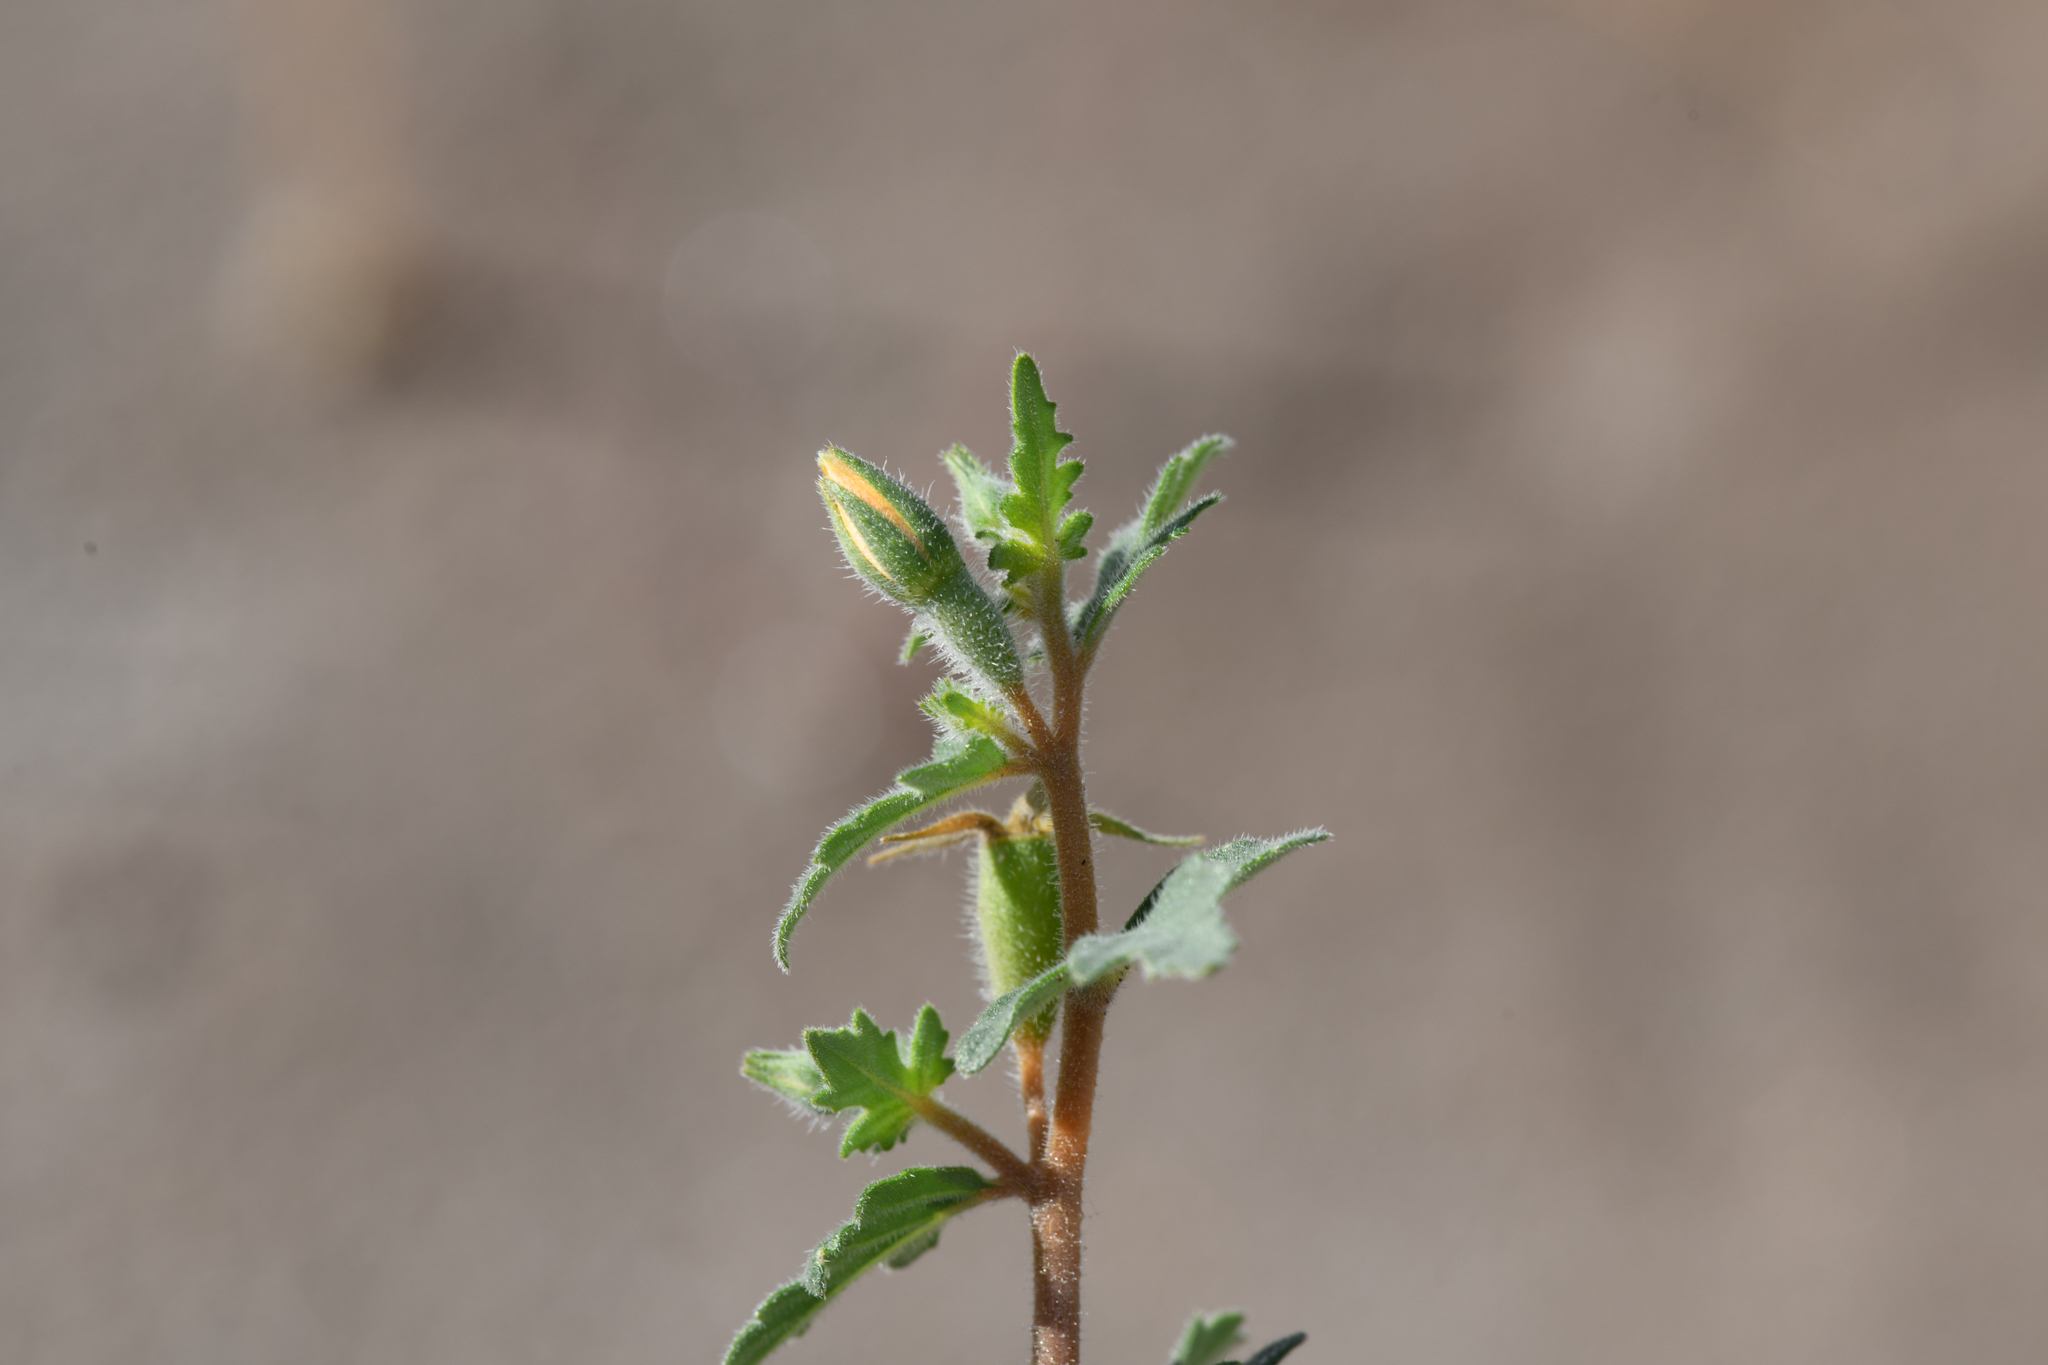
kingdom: Plantae
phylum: Tracheophyta
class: Magnoliopsida
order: Cornales
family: Loasaceae
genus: Mentzelia
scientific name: Mentzelia adhaerens
